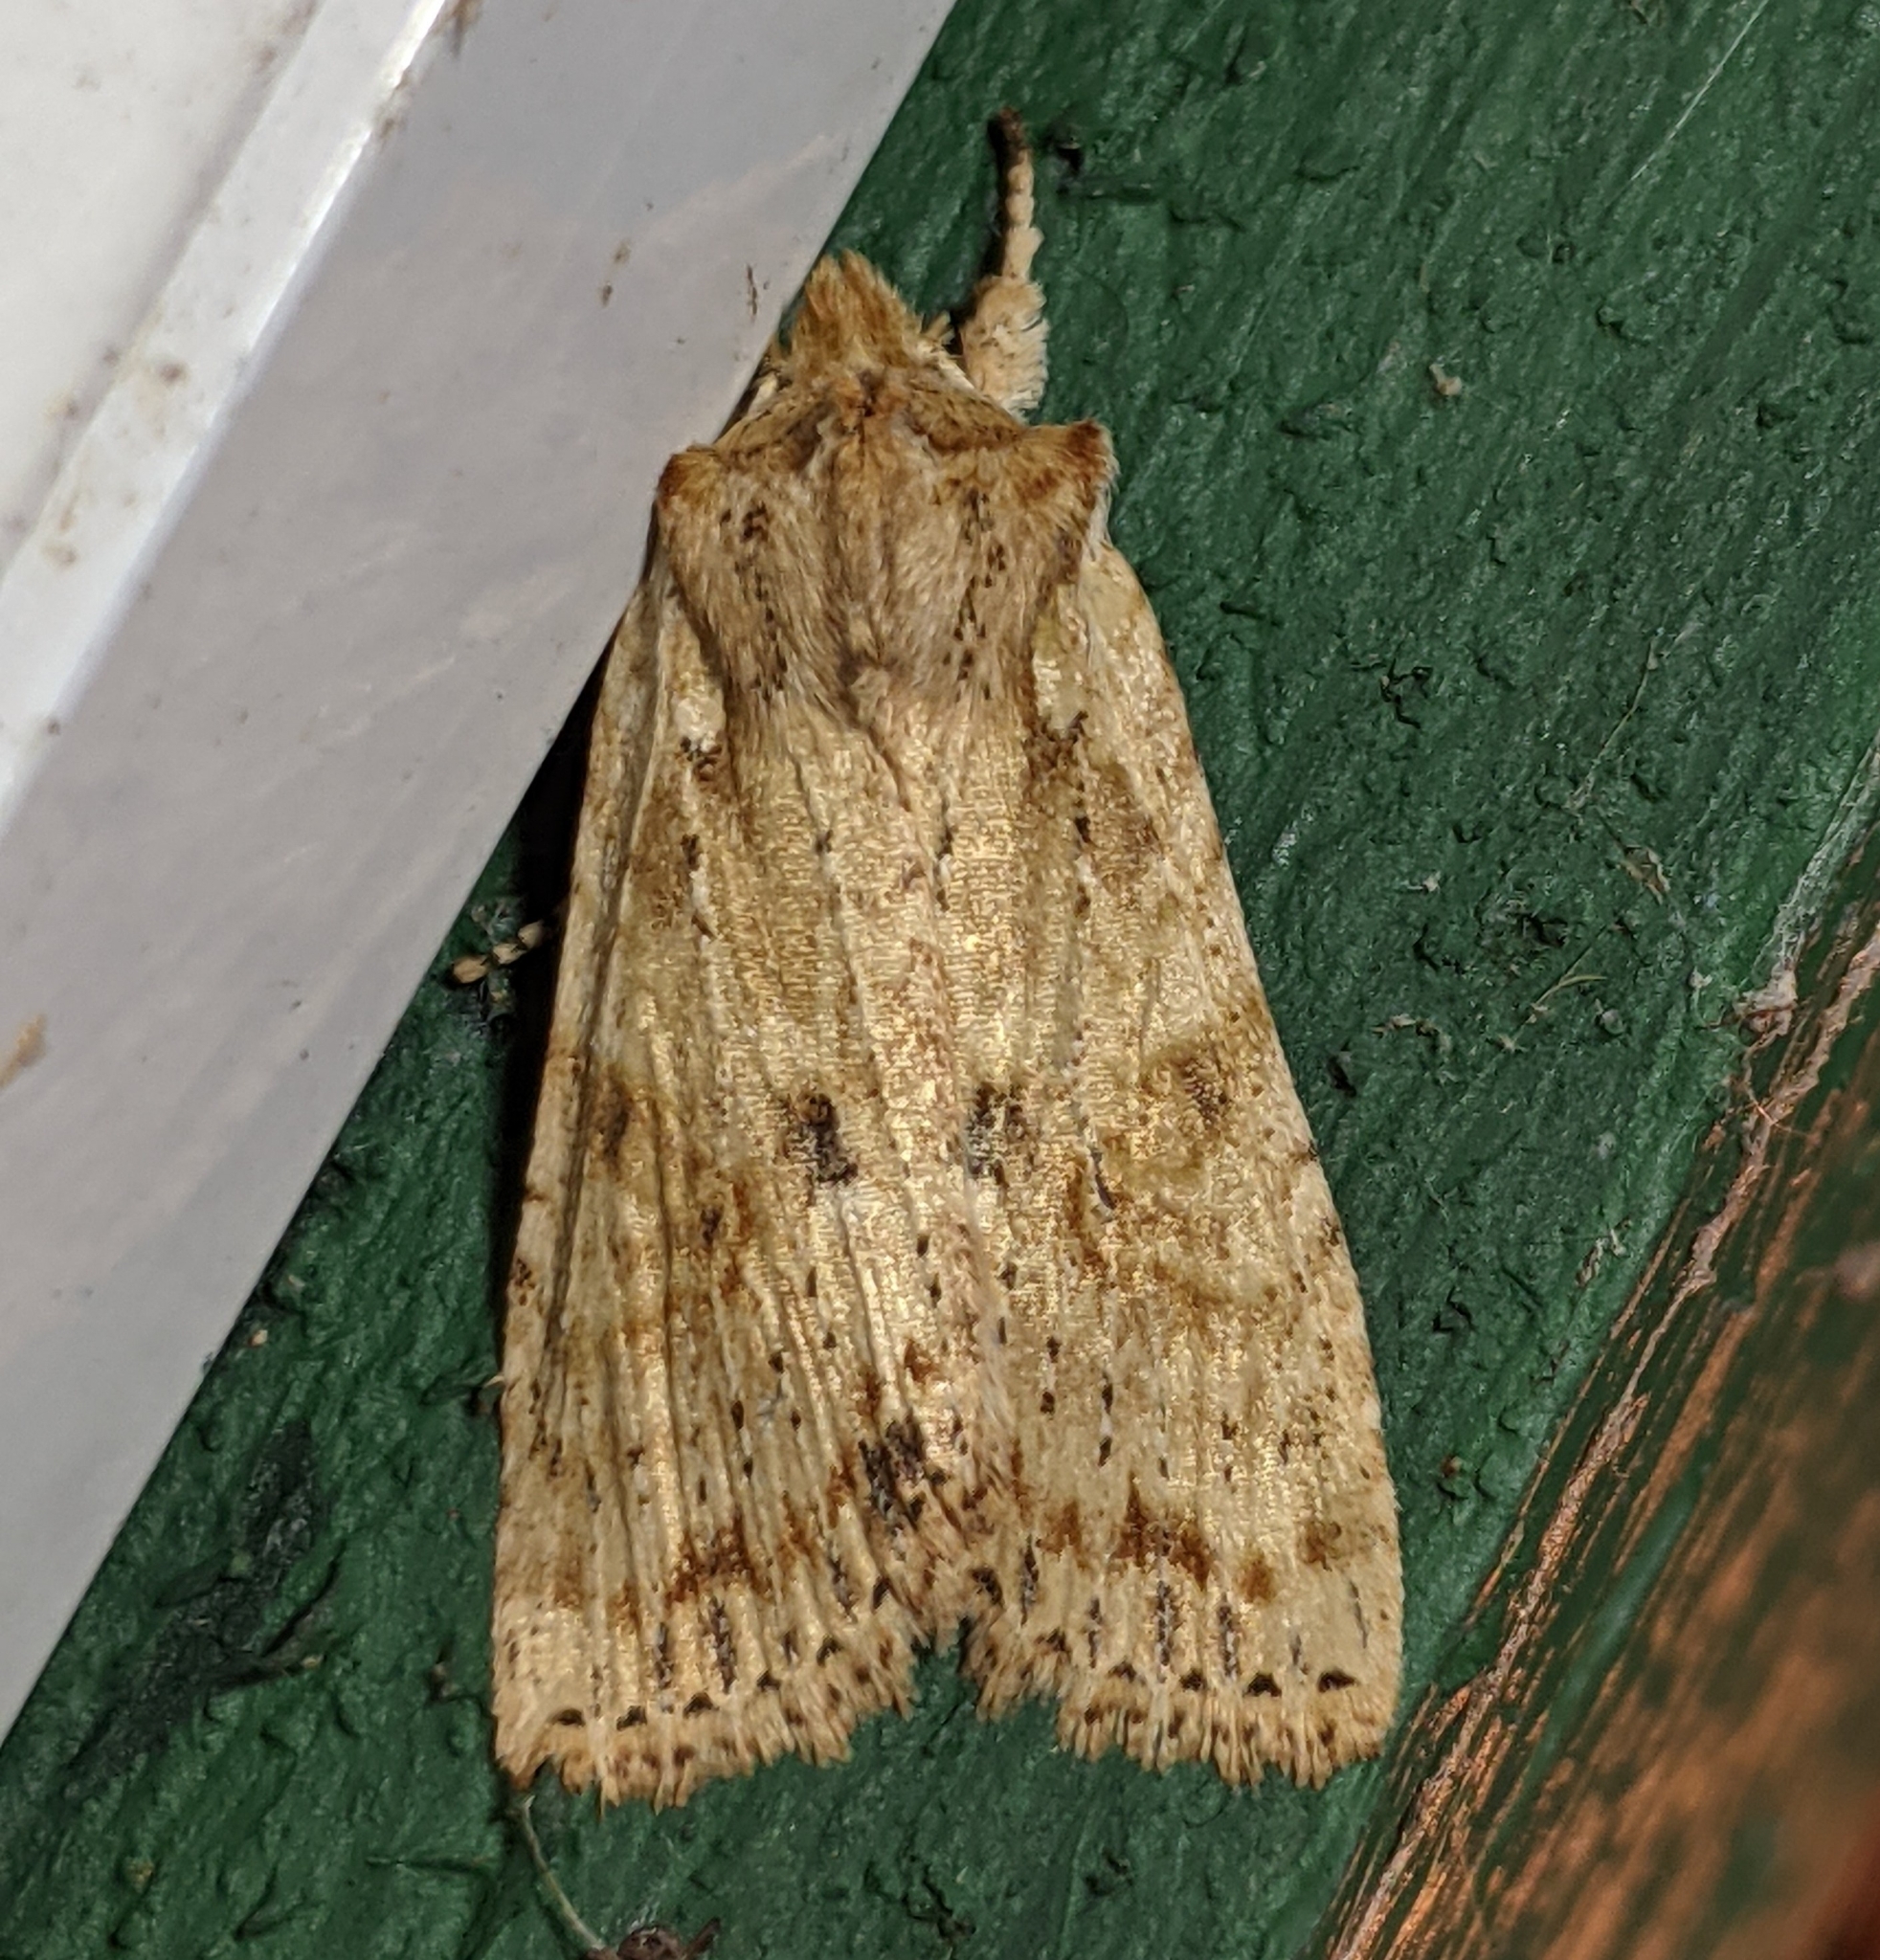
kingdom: Animalia
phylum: Arthropoda
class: Insecta
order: Lepidoptera
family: Noctuidae
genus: Lithophane
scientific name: Lithophane innominata
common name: Nameless pinion moth
